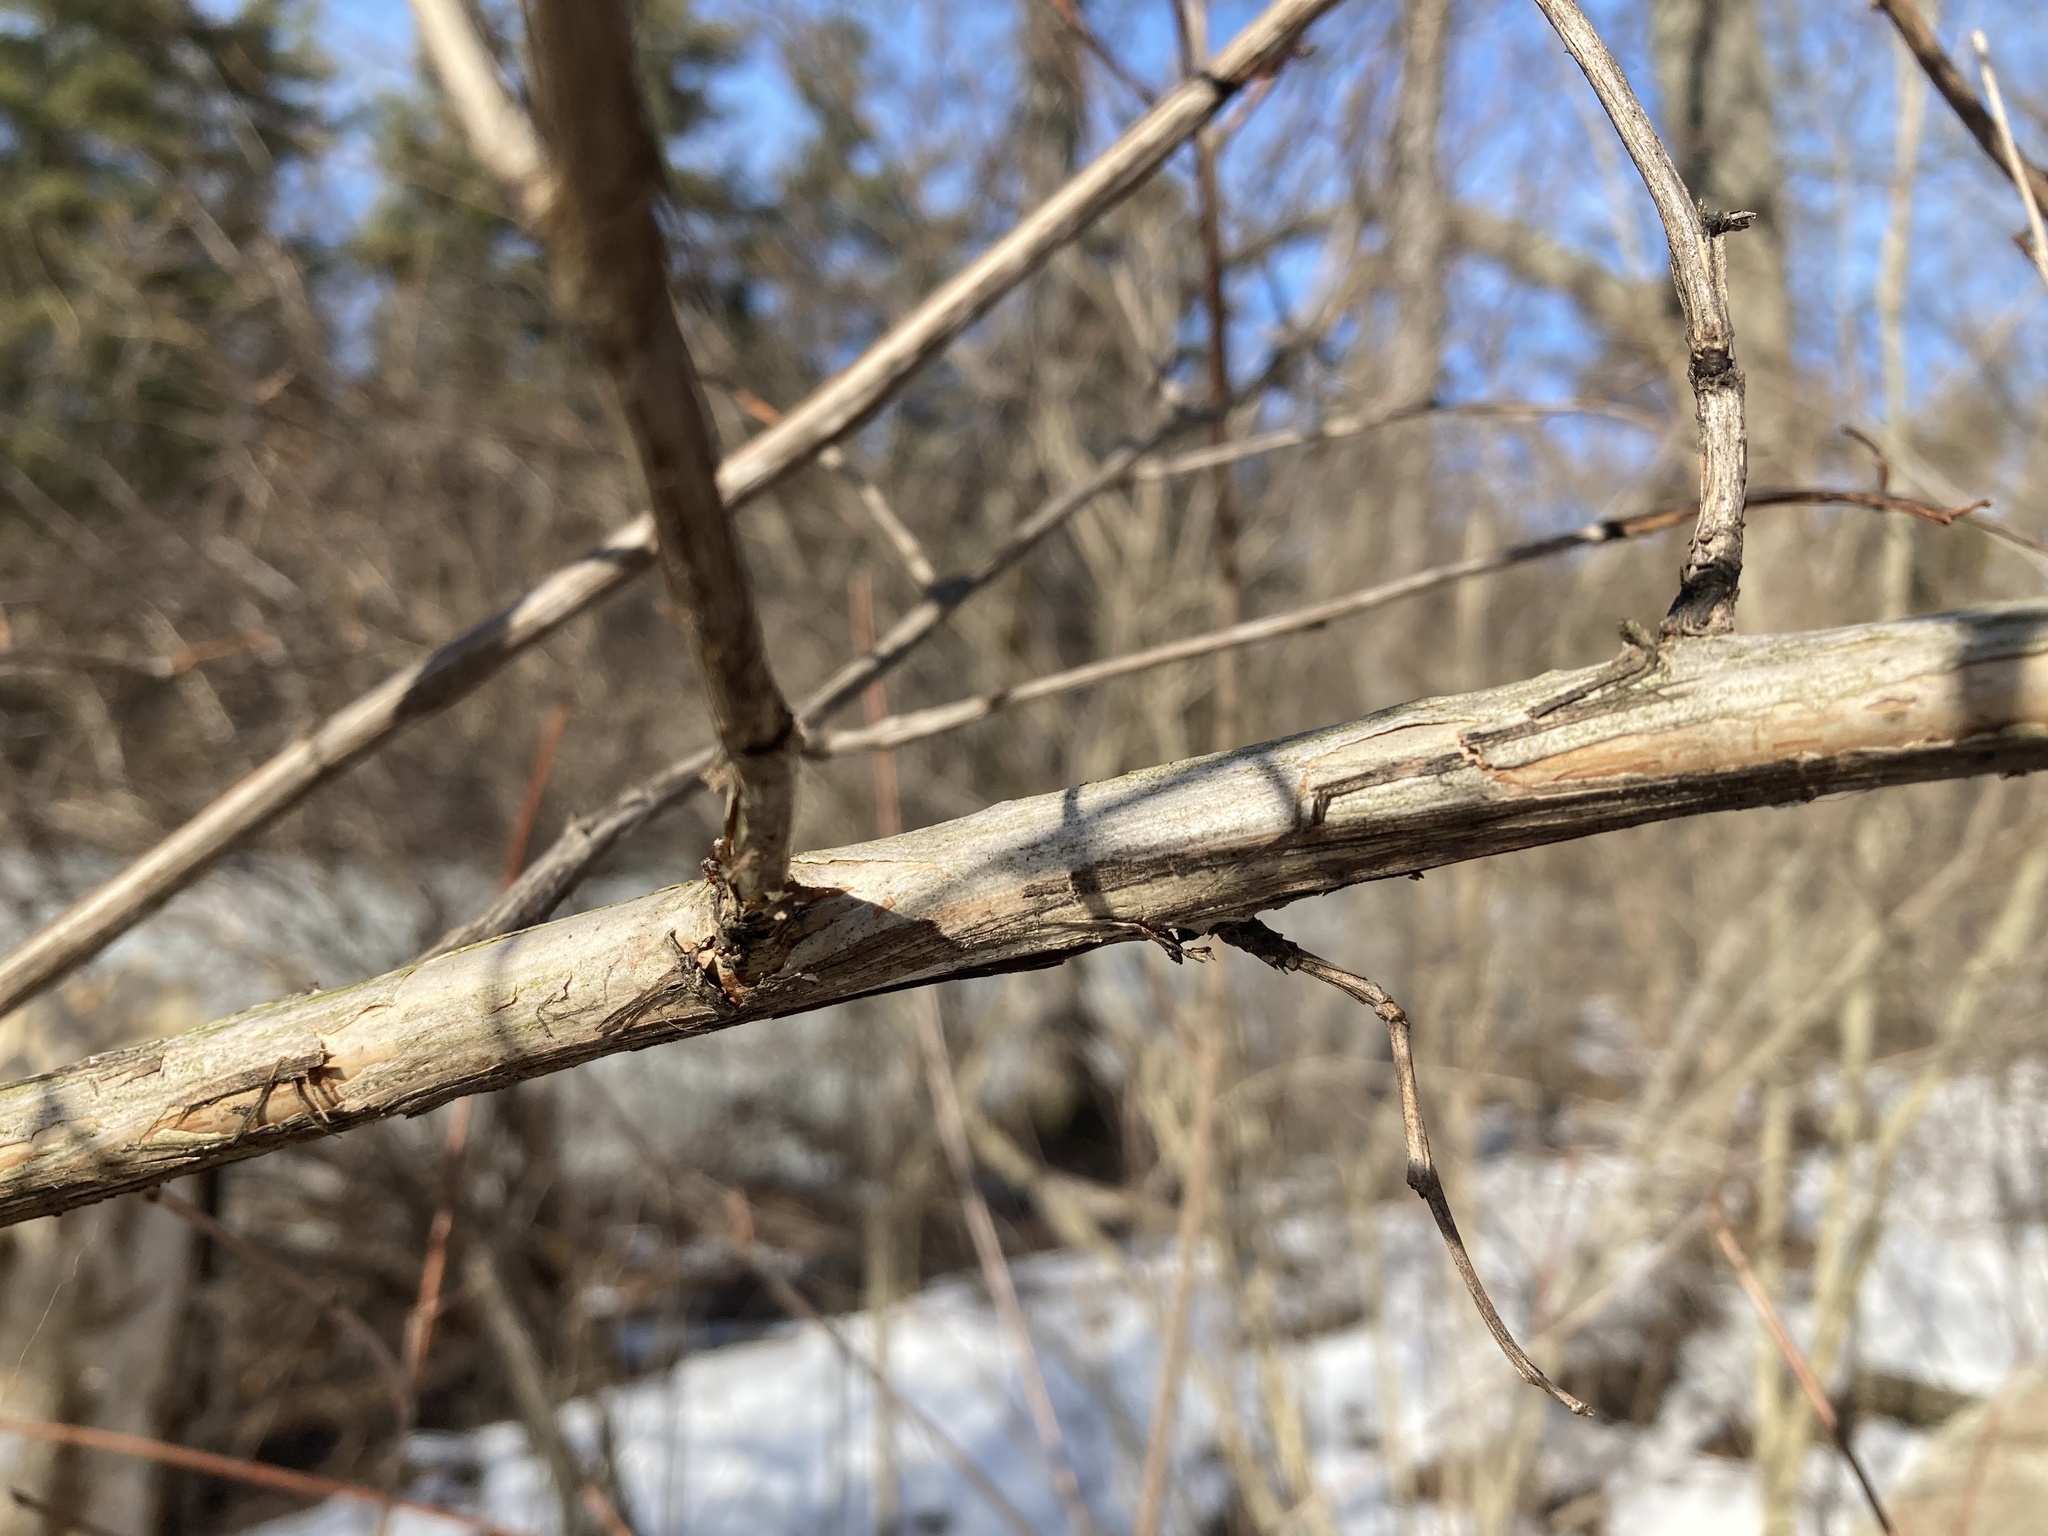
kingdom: Plantae
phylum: Tracheophyta
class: Magnoliopsida
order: Rosales
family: Rosaceae
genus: Physocarpus
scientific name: Physocarpus opulifolius
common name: Ninebark
